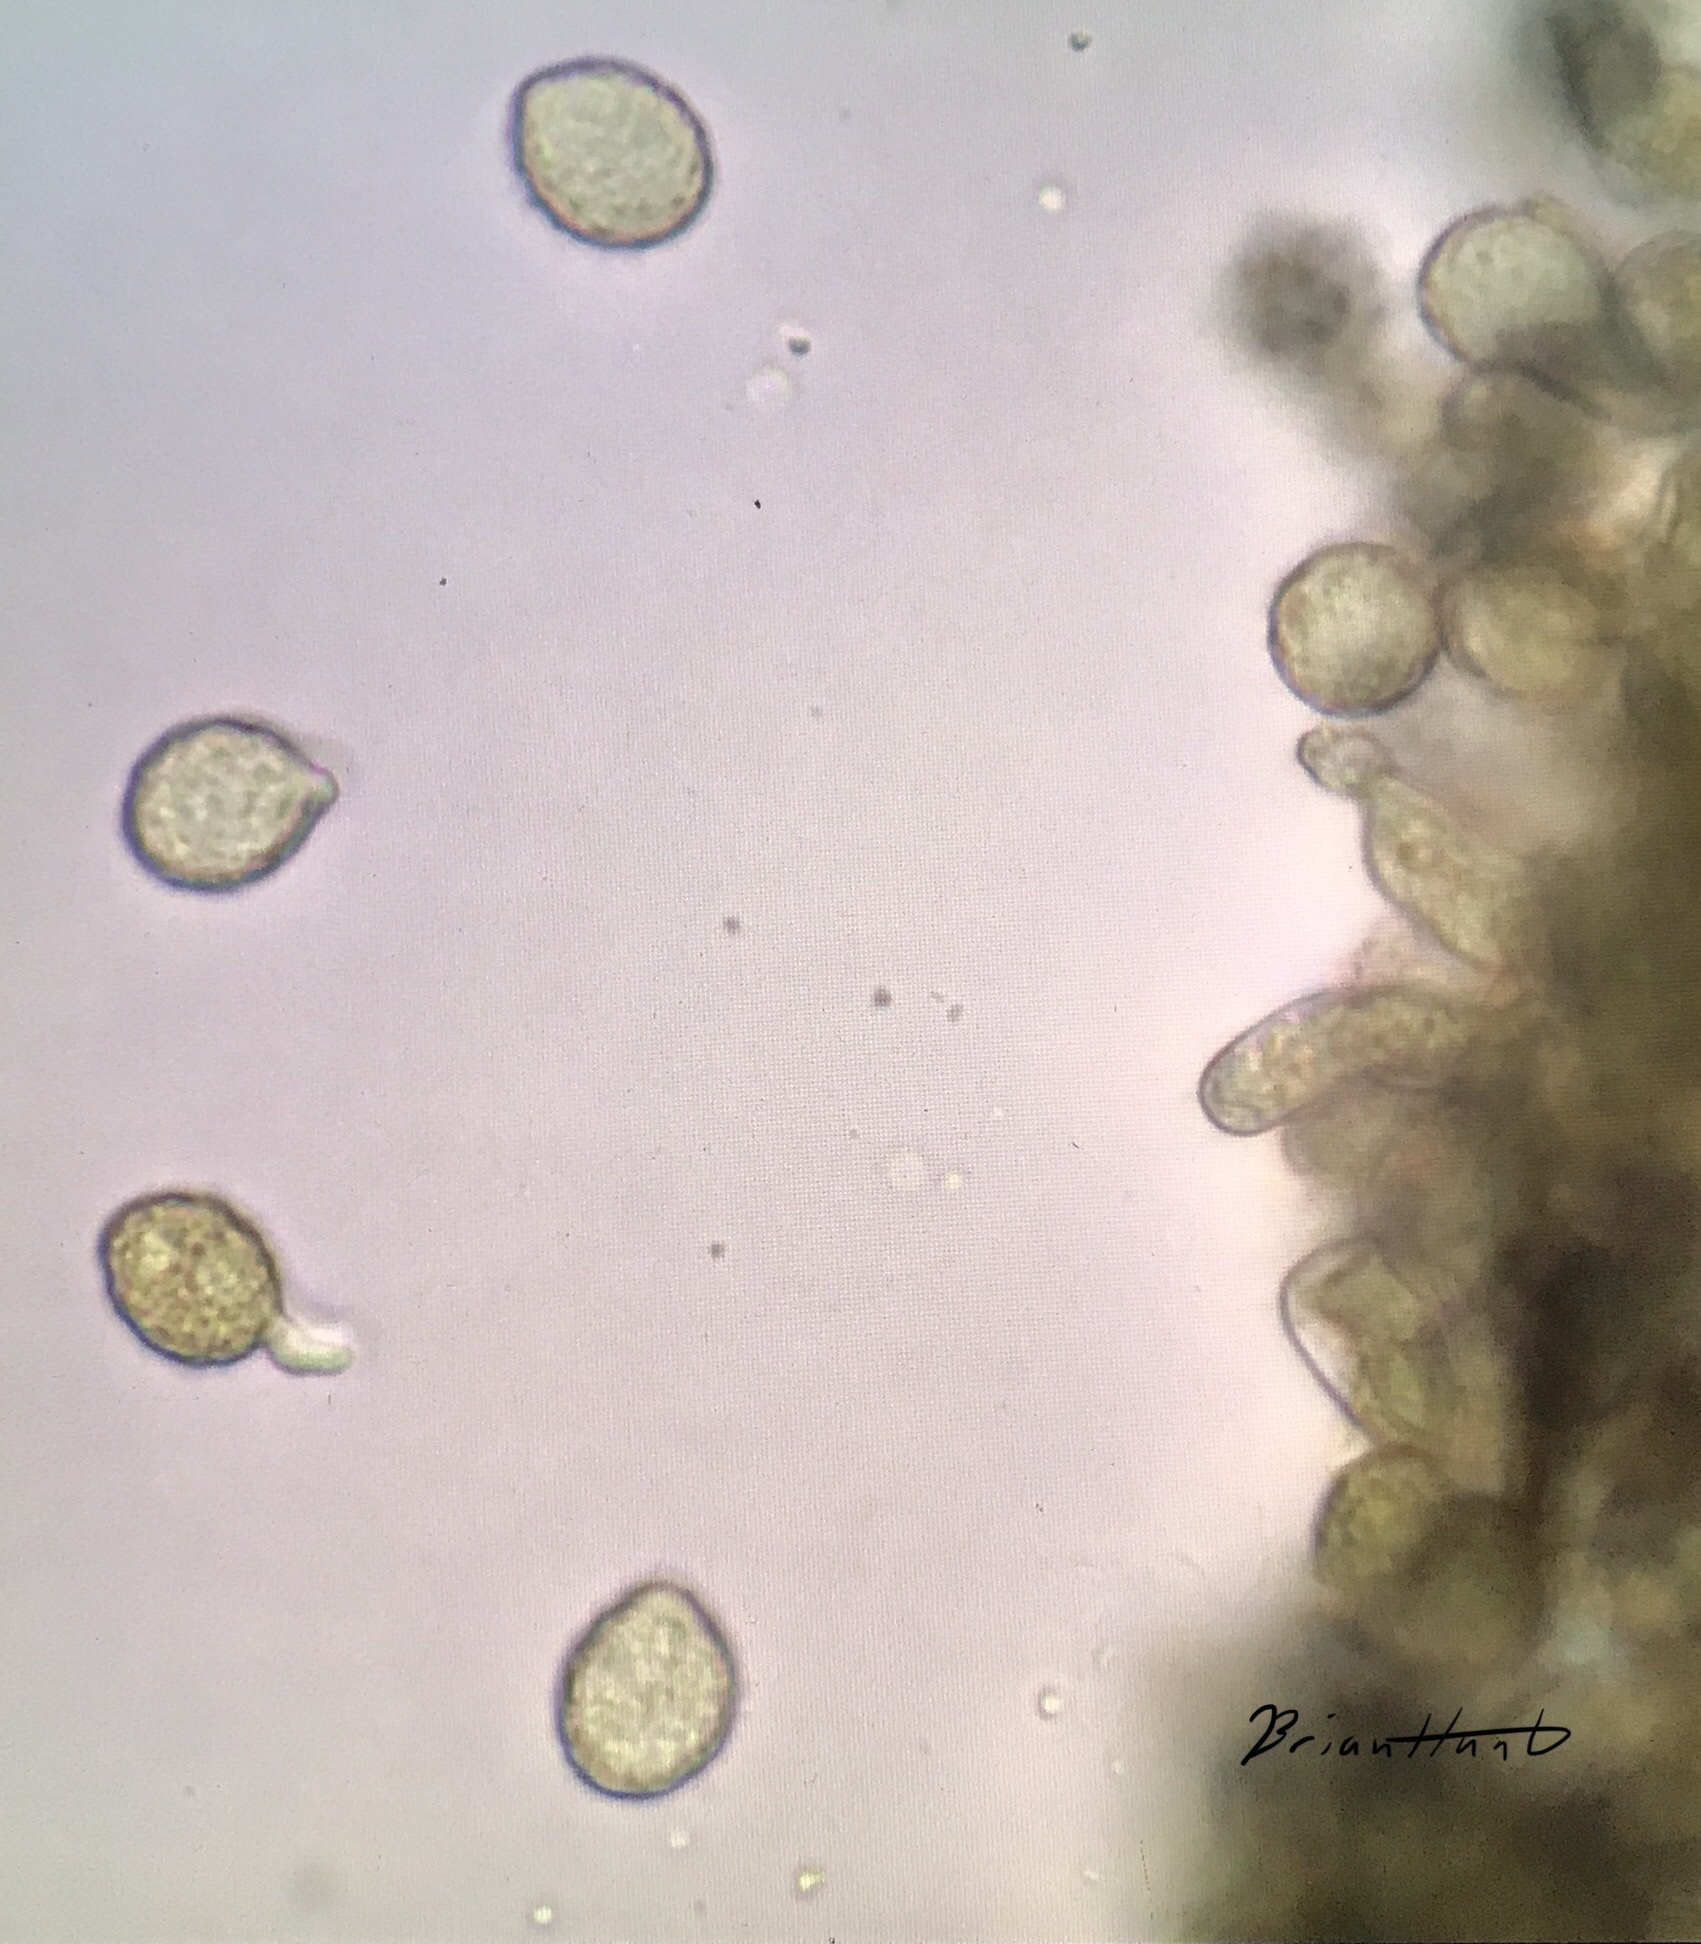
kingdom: Fungi
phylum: Entomophthoromycota
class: Entomophthoromycetes
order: Entomophthorales
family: Entomophthoraceae
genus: Massospora
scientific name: Massospora cicadina
